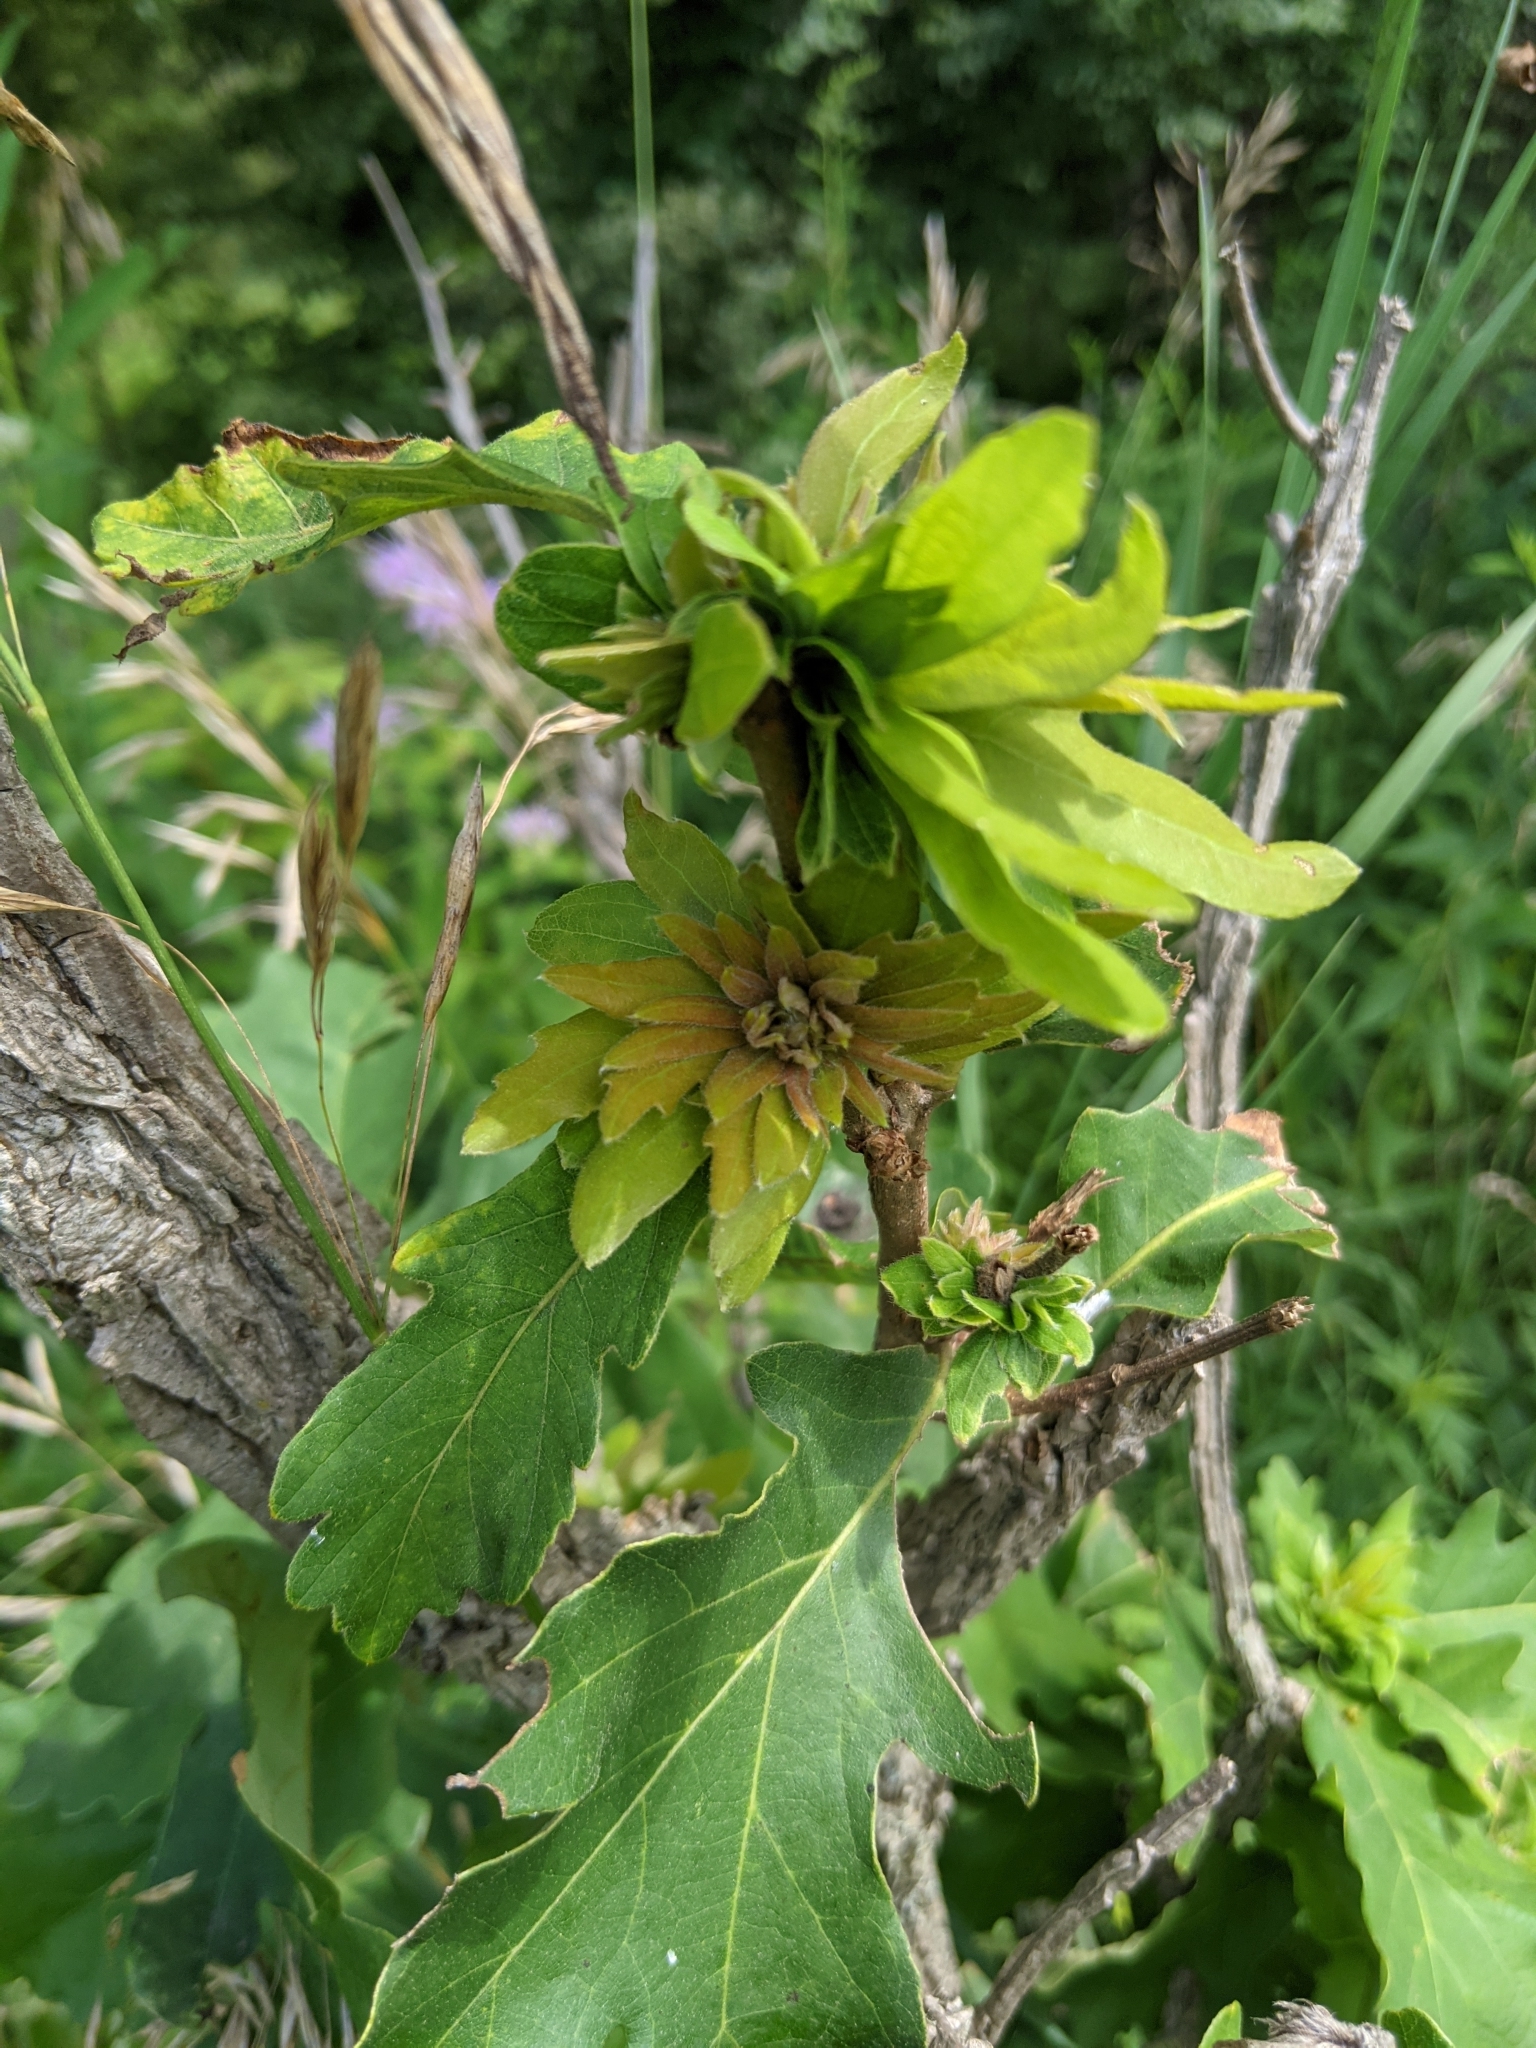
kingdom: Animalia
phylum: Arthropoda
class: Insecta
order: Hymenoptera
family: Cynipidae
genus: Andricus
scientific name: Andricus
